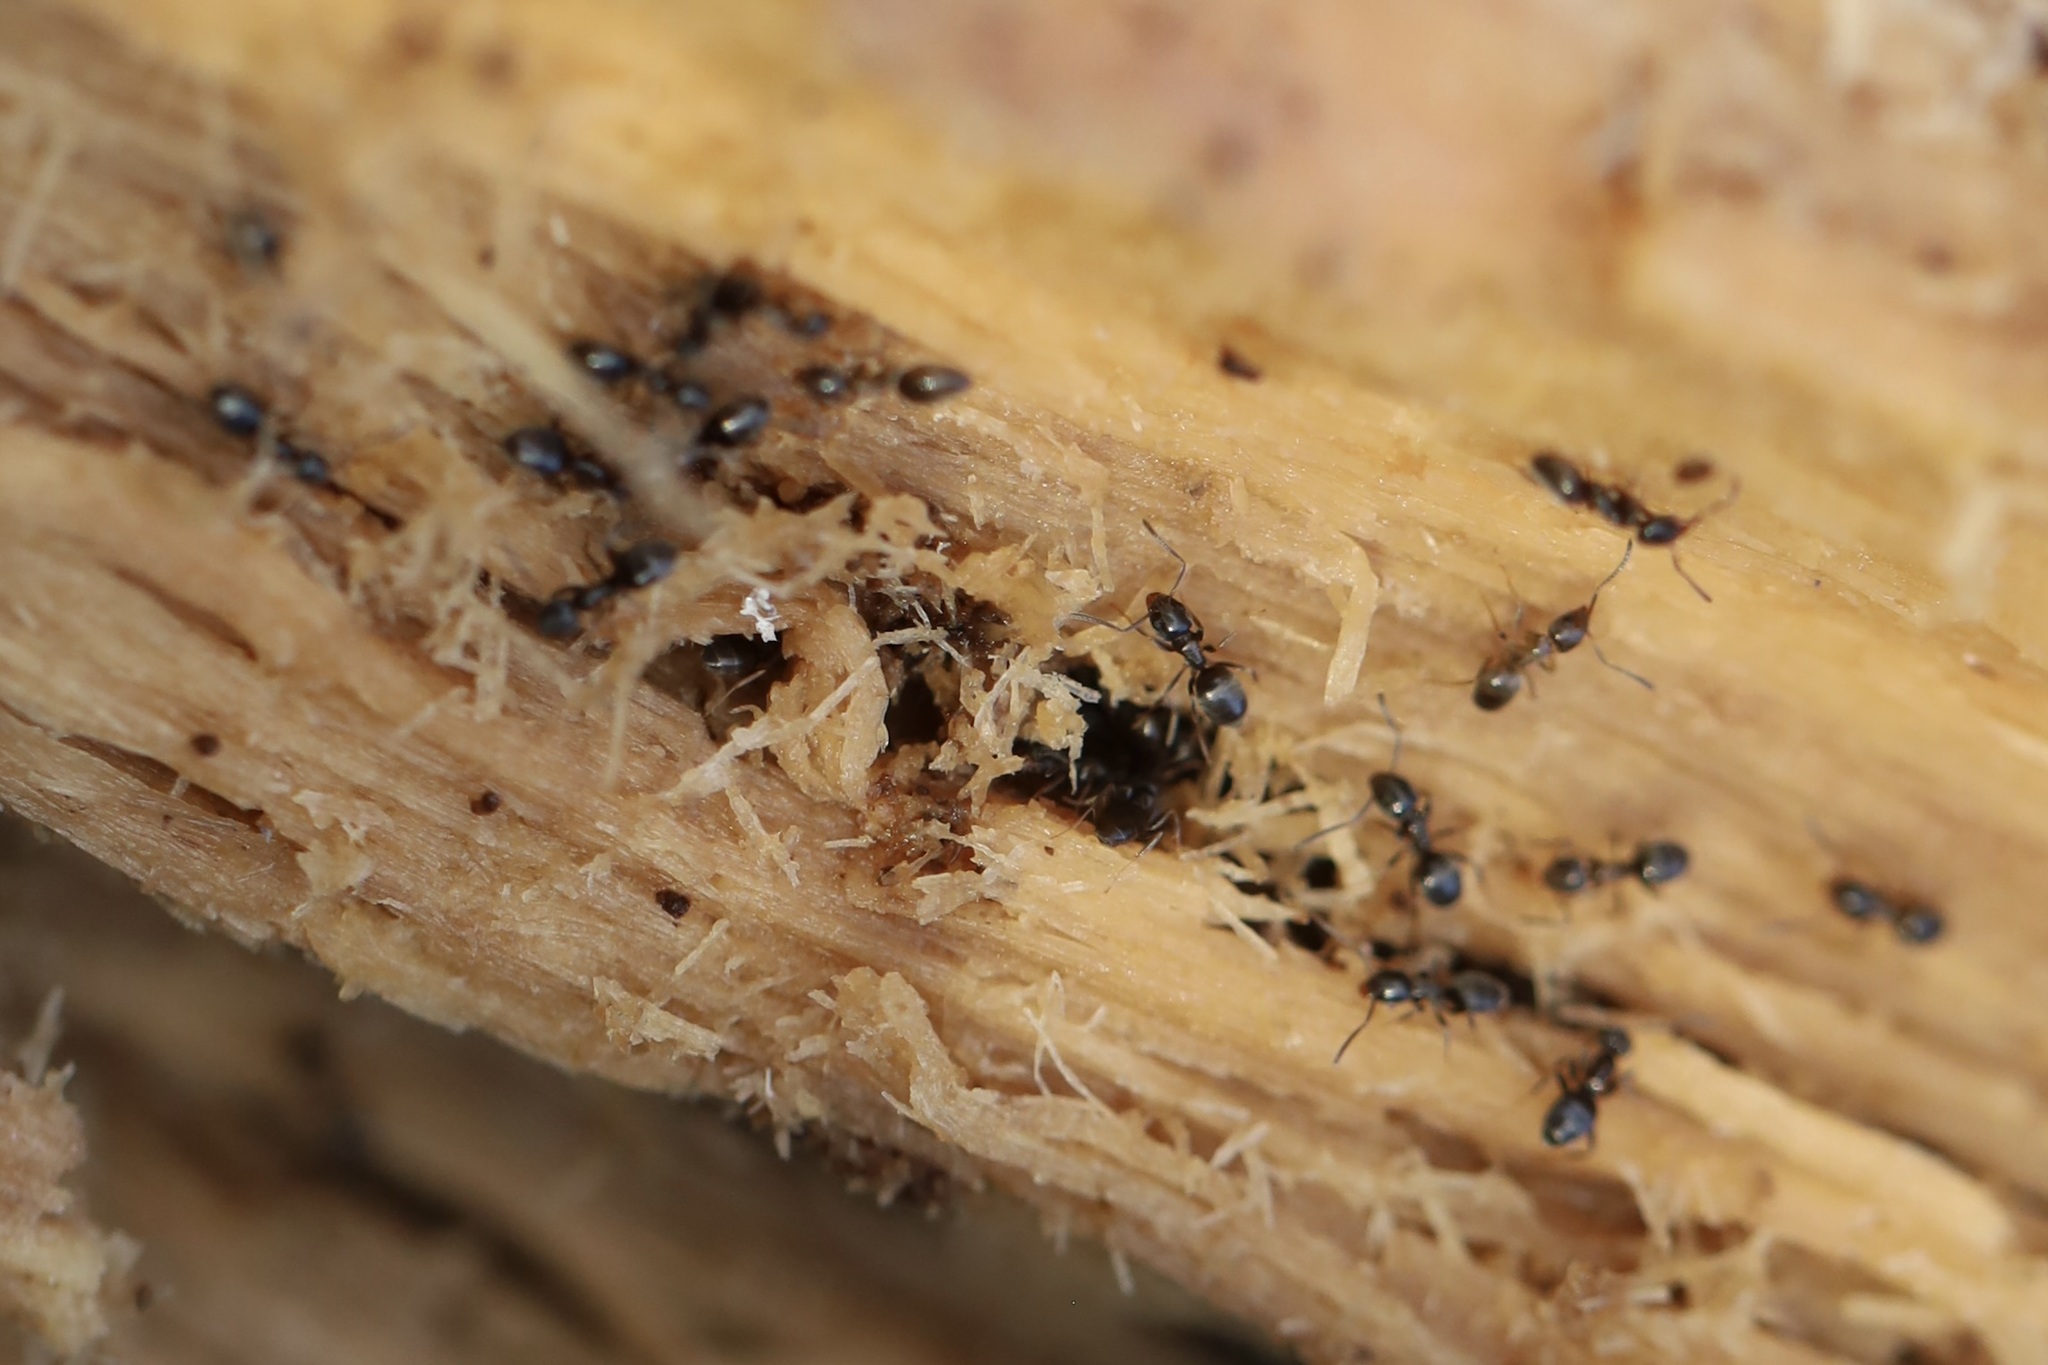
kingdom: Animalia
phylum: Arthropoda
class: Insecta
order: Hymenoptera
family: Formicidae
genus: Tapinoma
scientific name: Tapinoma sessile
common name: Odorous house ant
